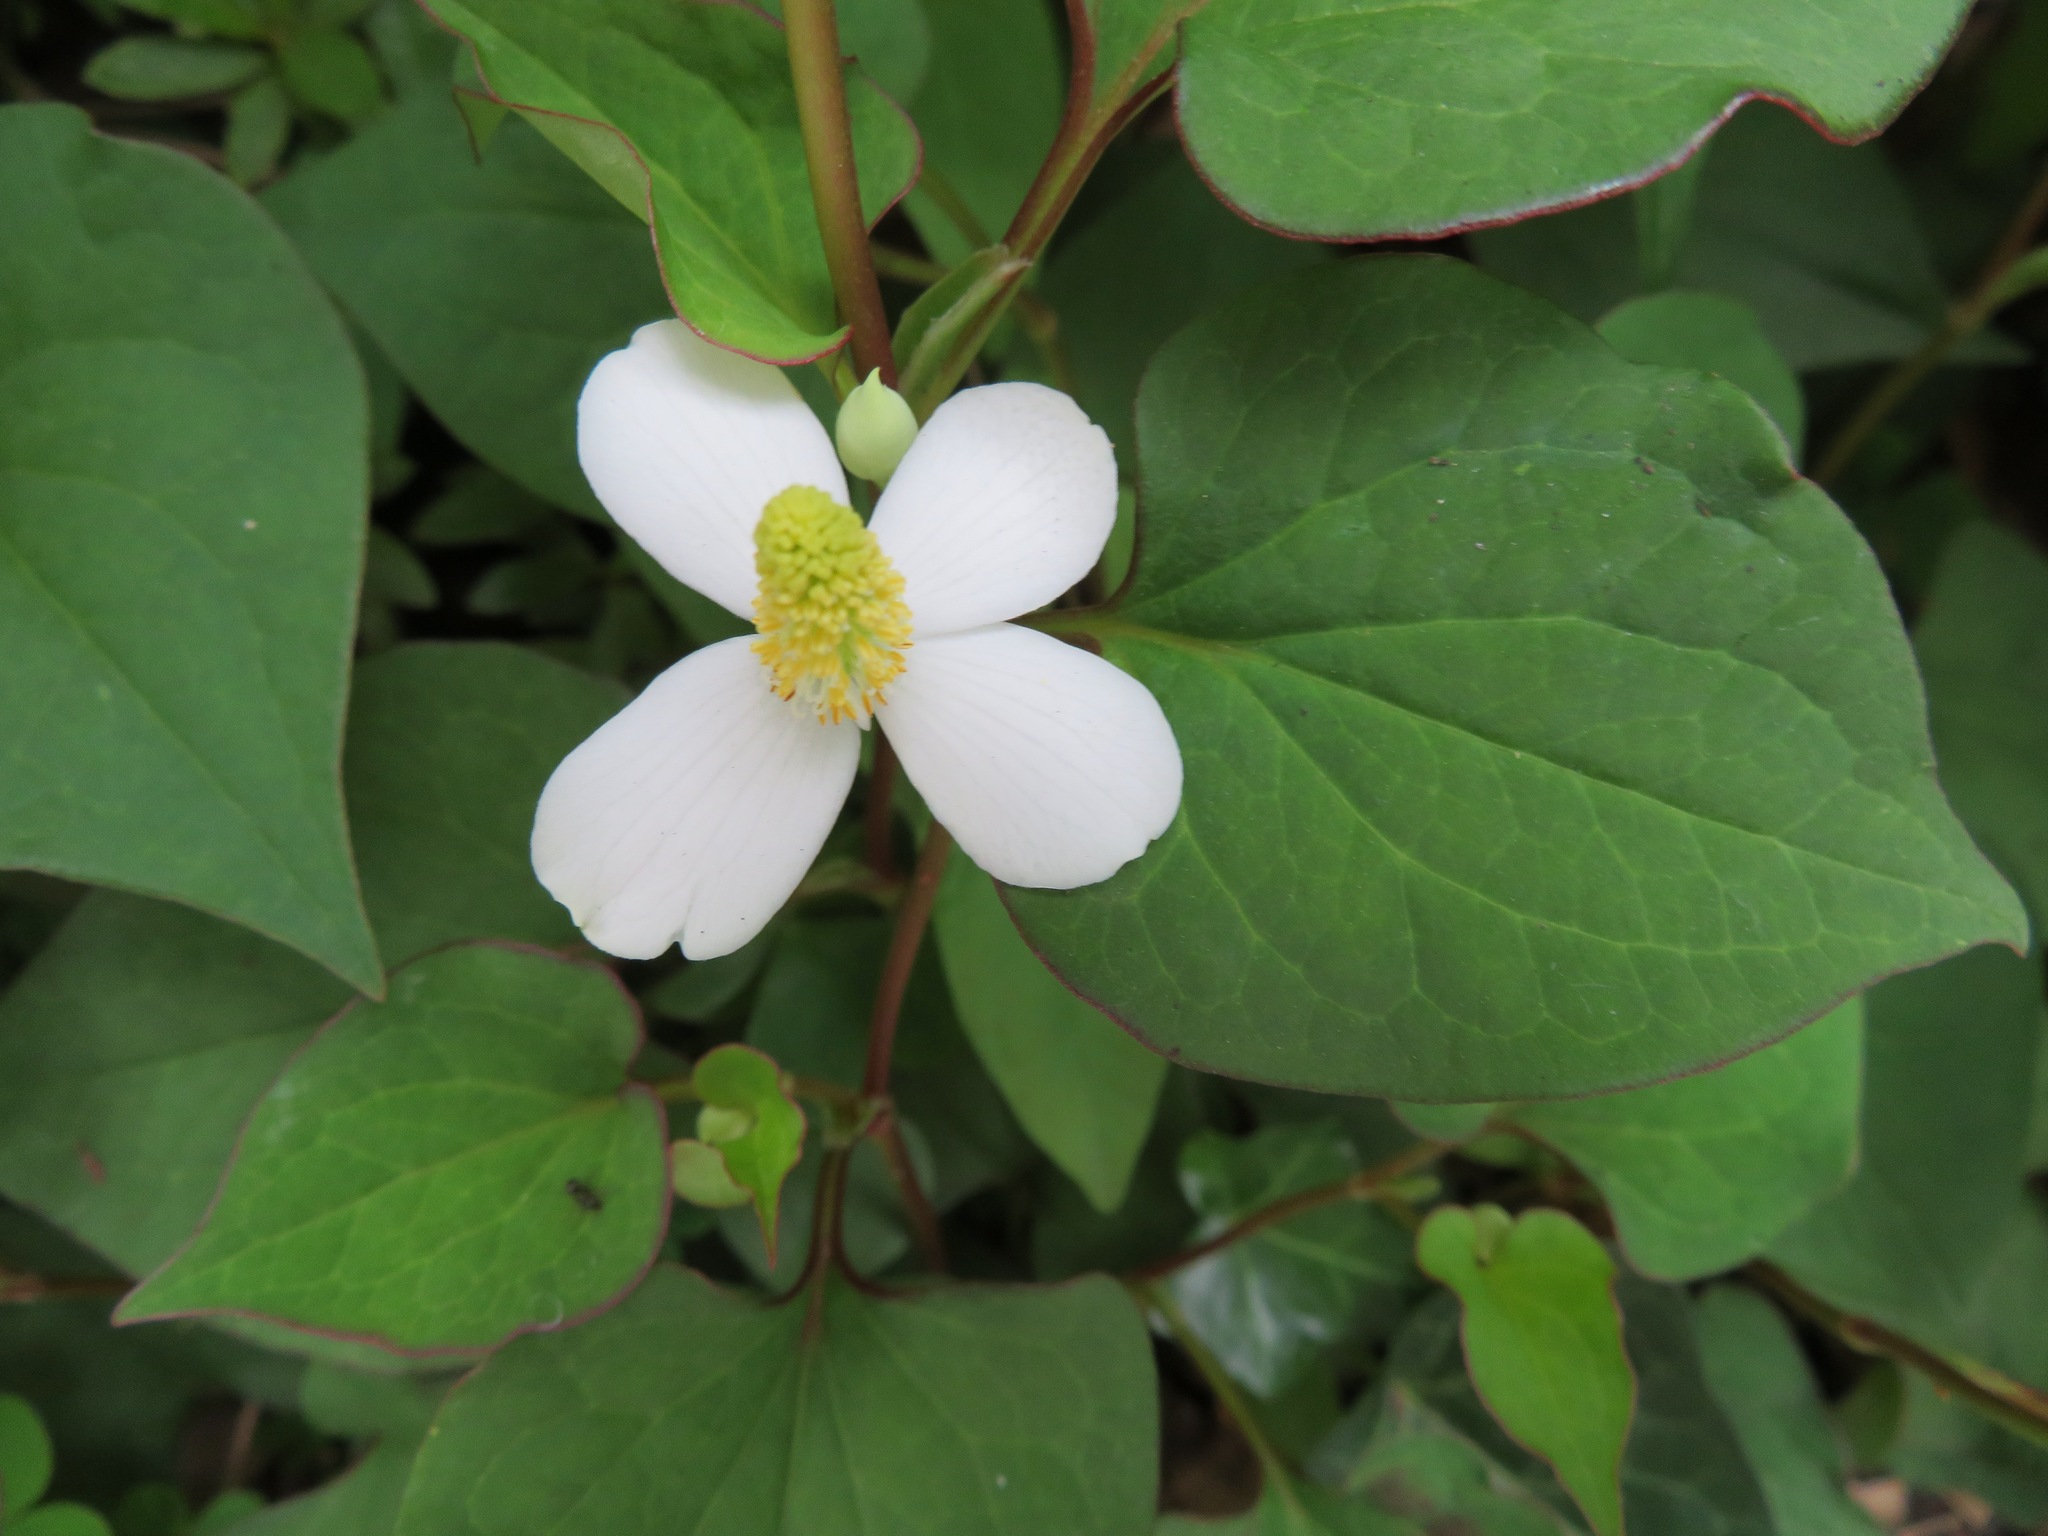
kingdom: Plantae
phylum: Tracheophyta
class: Magnoliopsida
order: Piperales
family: Saururaceae
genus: Houttuynia
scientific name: Houttuynia cordata
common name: Chameleon
